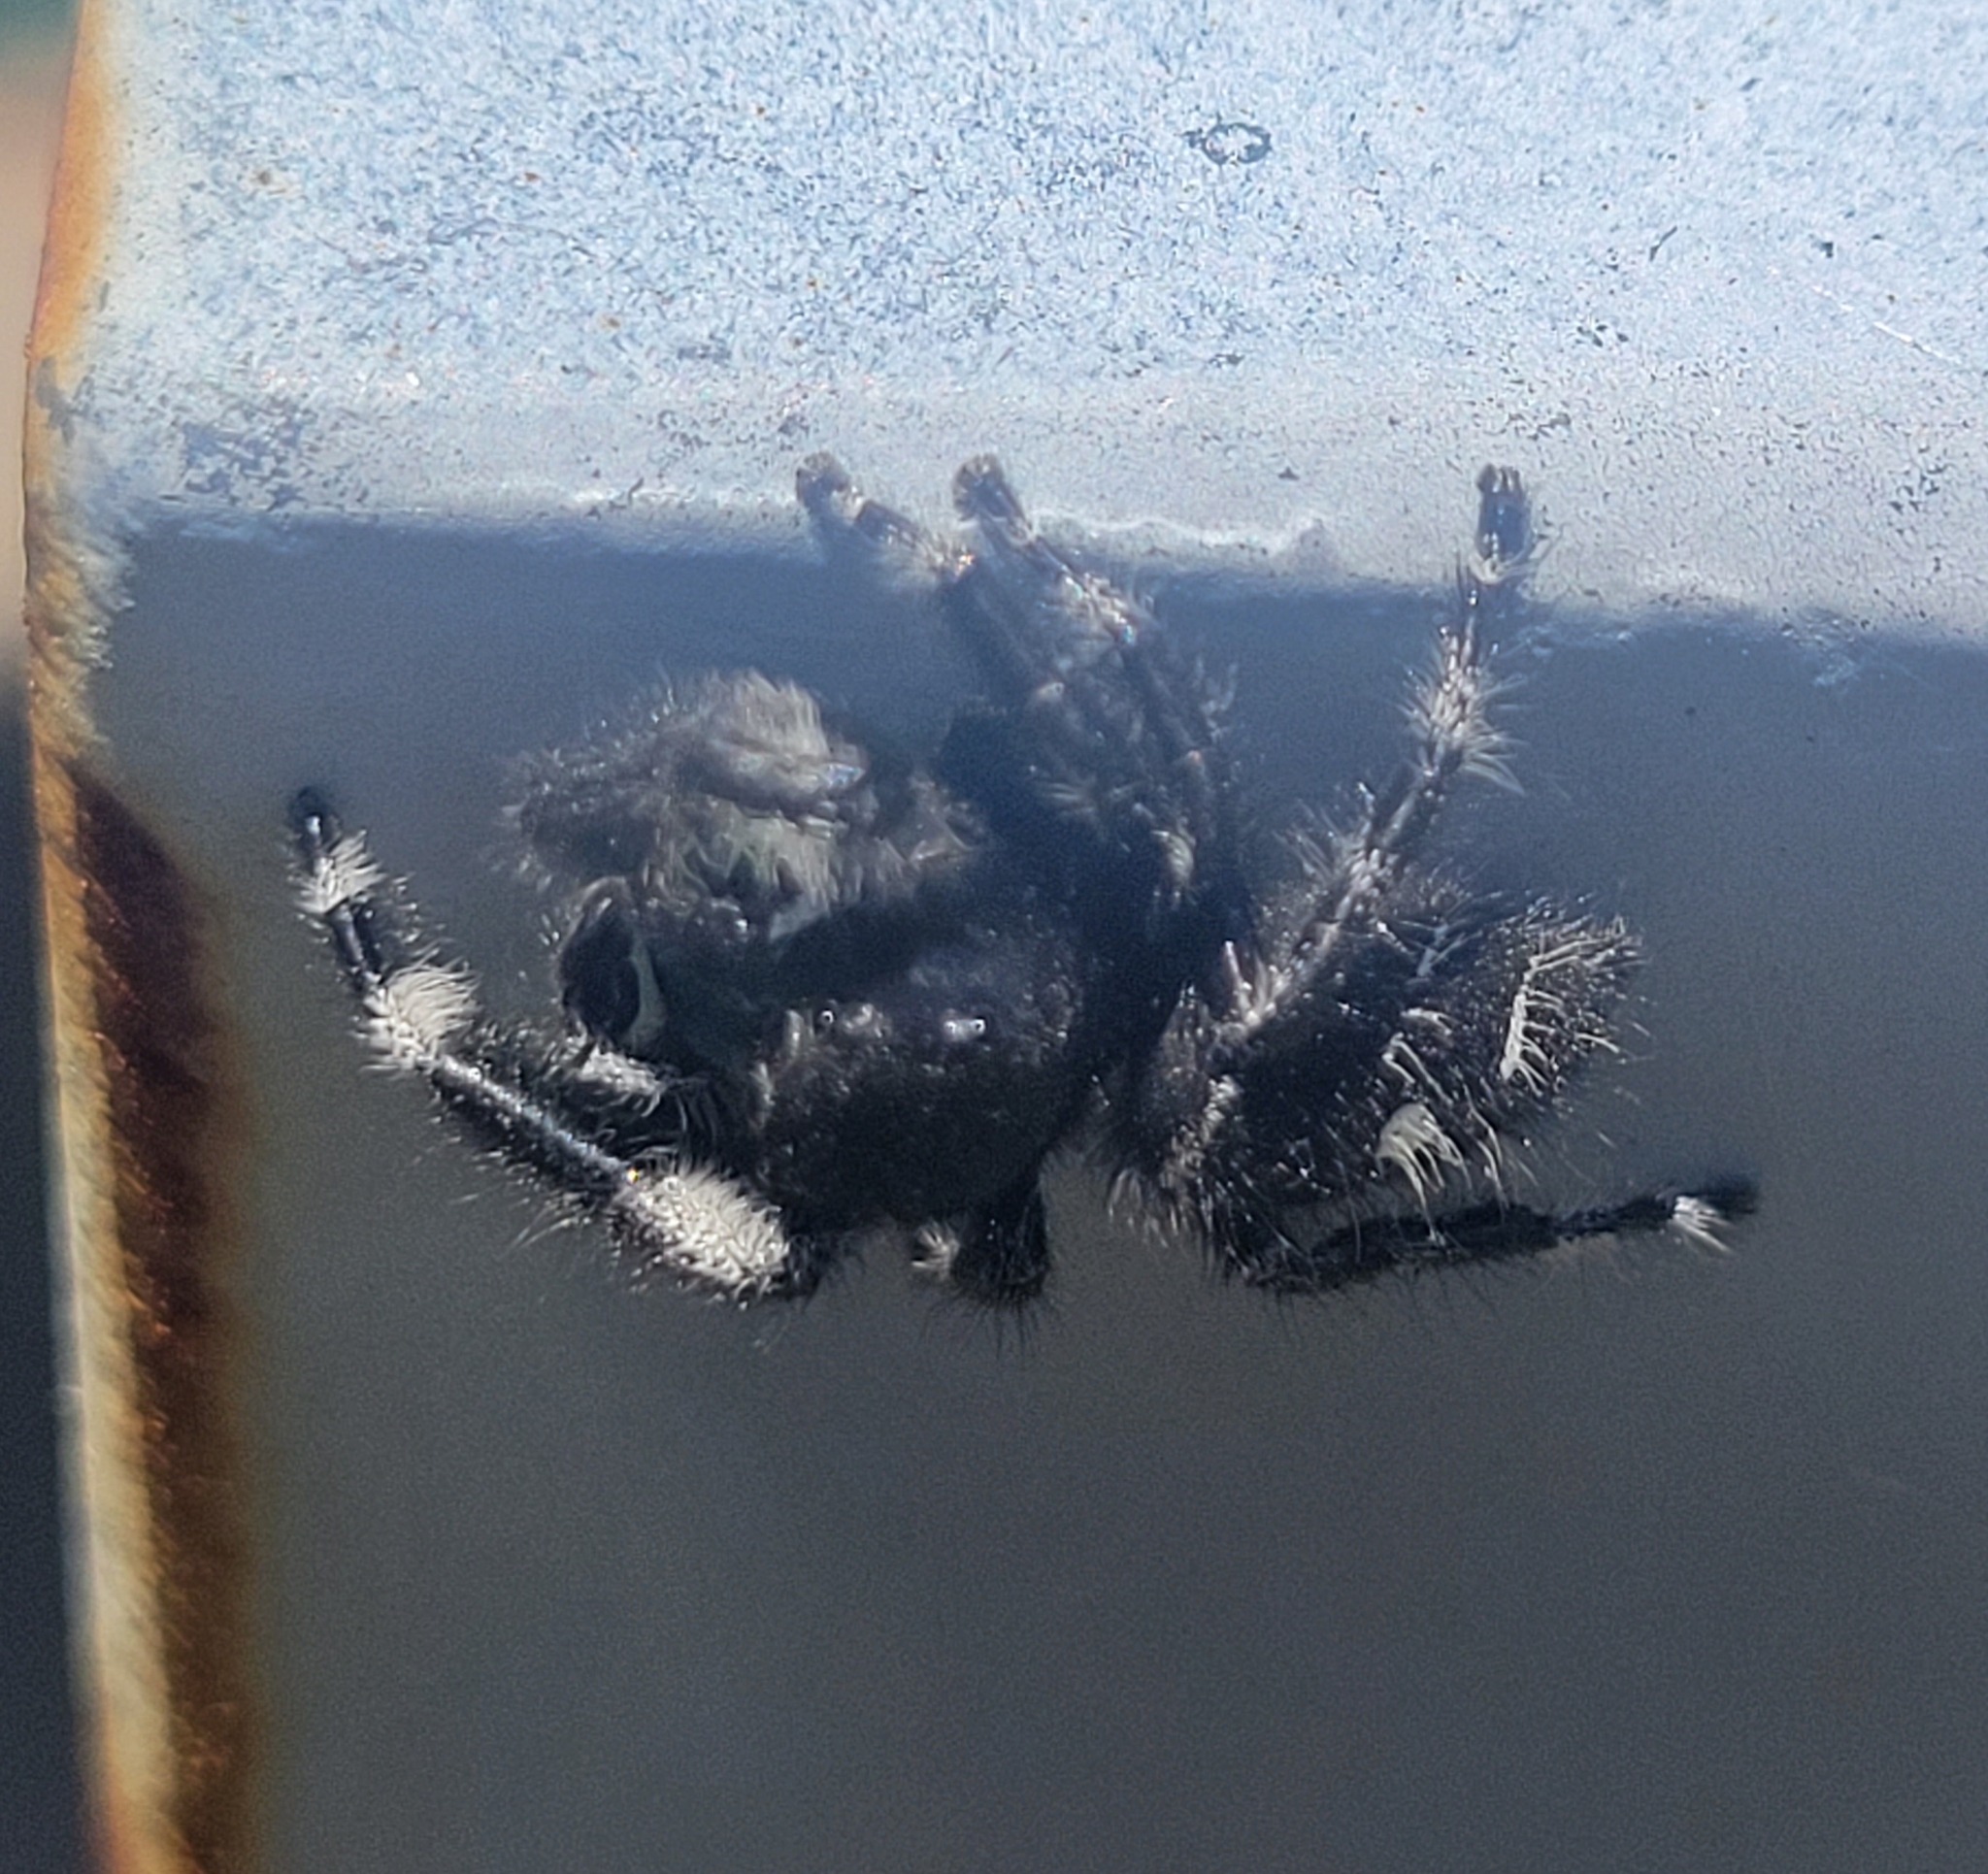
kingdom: Animalia
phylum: Arthropoda
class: Arachnida
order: Araneae
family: Salticidae
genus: Phidippus
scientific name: Phidippus audax
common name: Bold jumper
